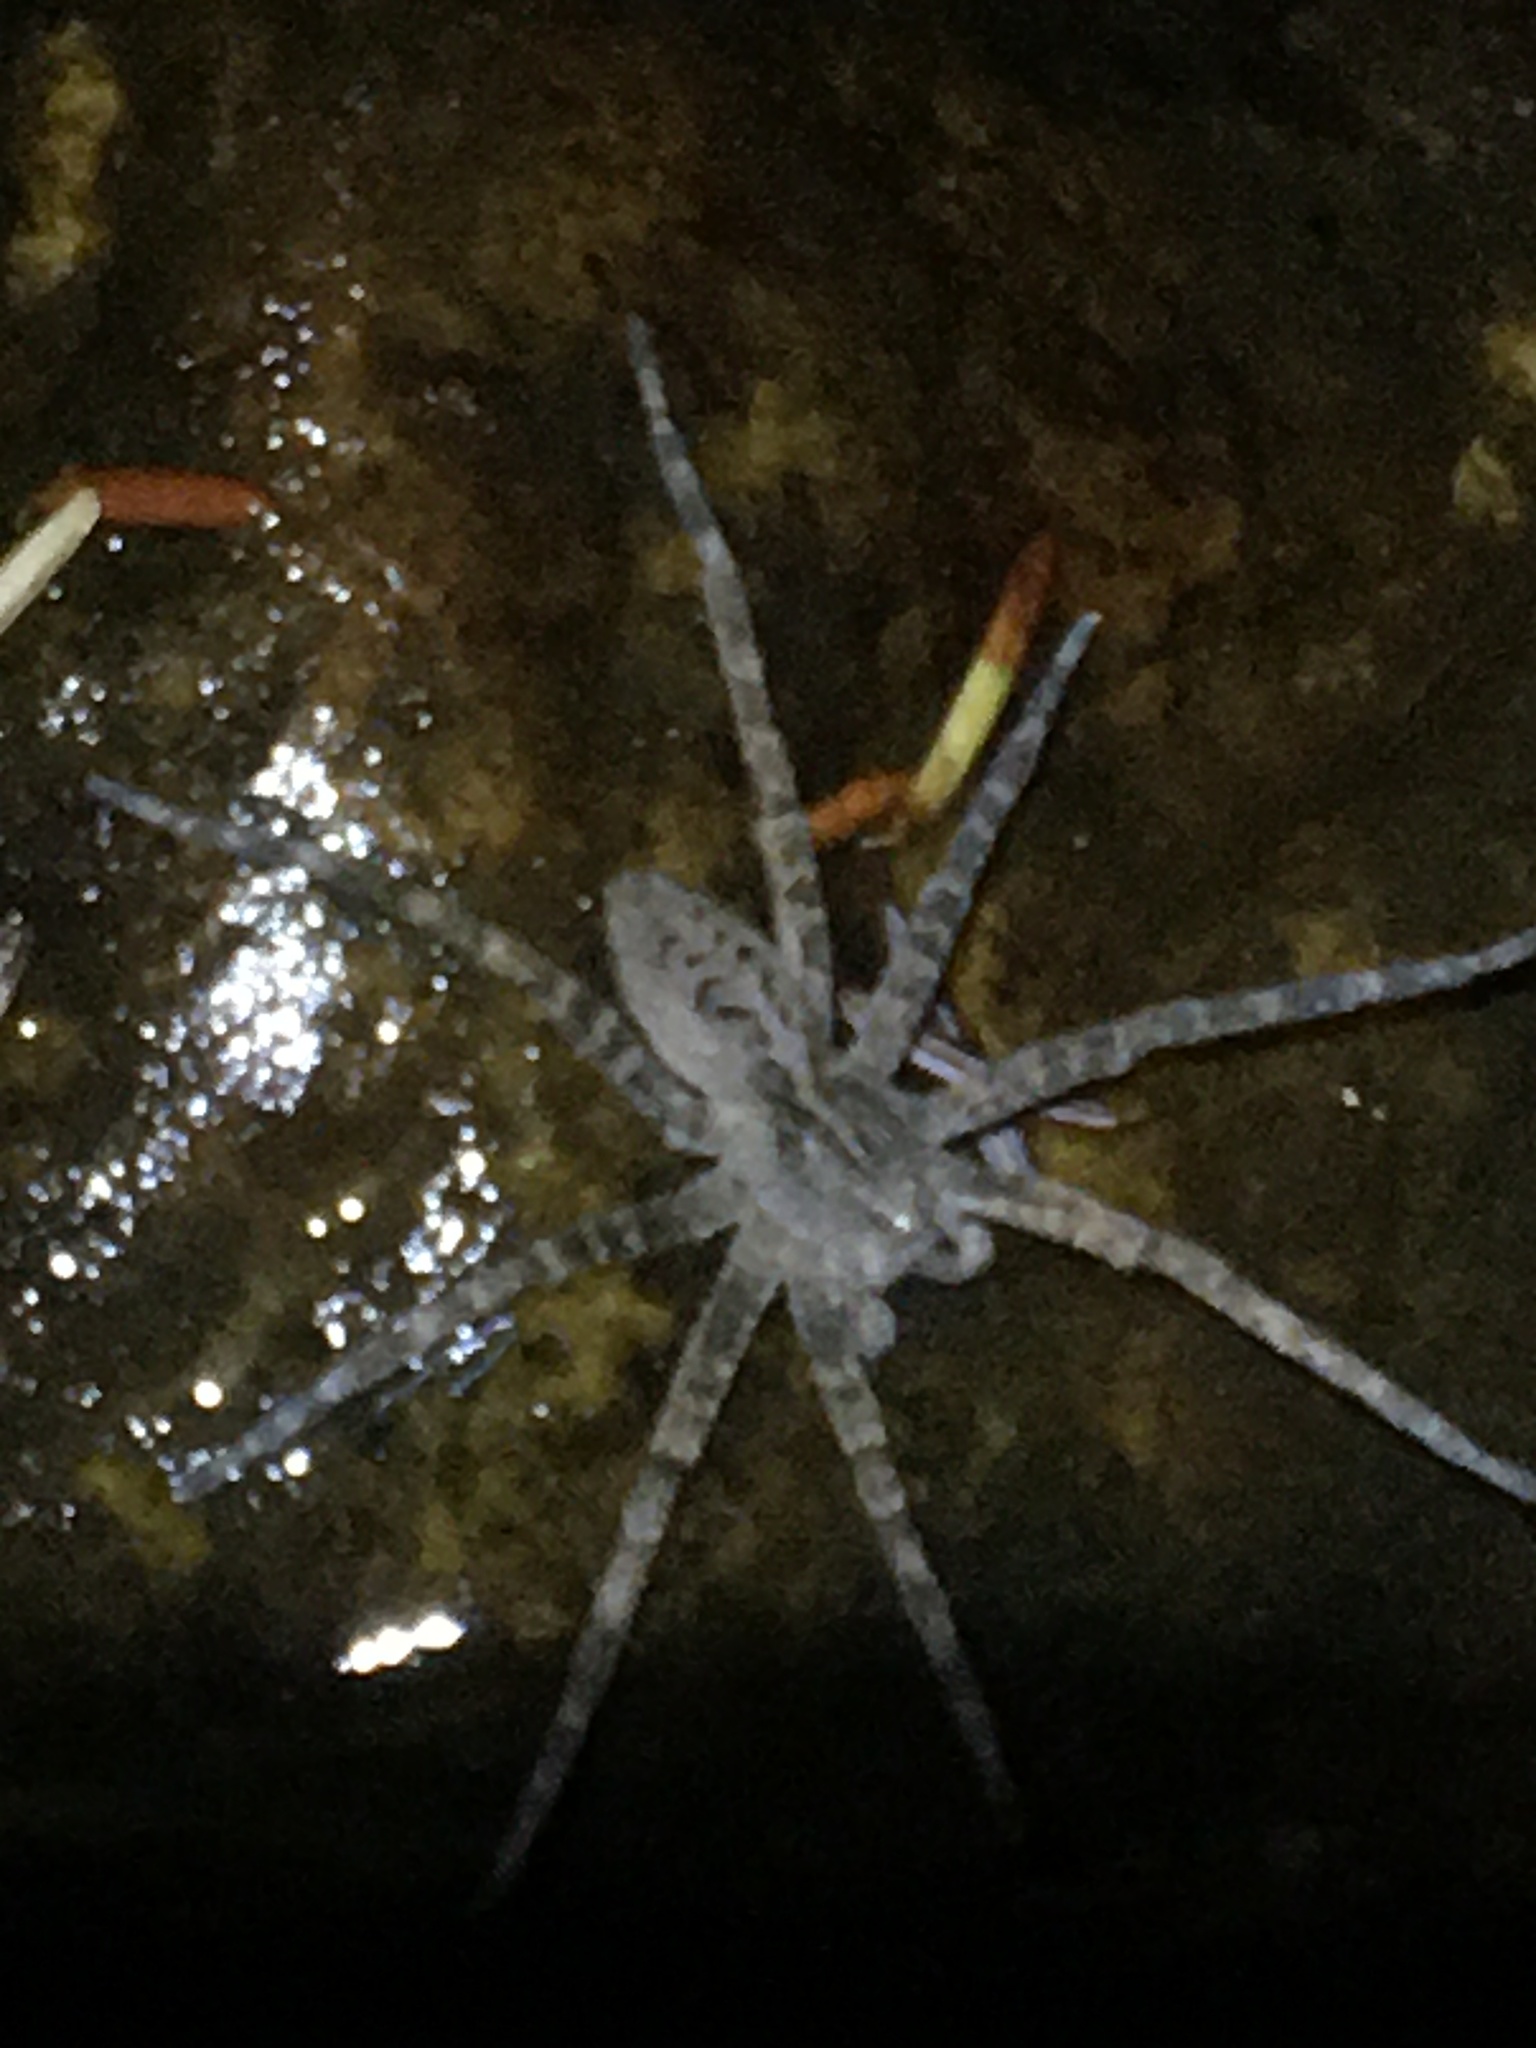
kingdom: Animalia
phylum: Arthropoda
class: Arachnida
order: Araneae
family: Pisauridae
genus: Dolomedes
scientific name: Dolomedes scriptus
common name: Striped fishing spider
